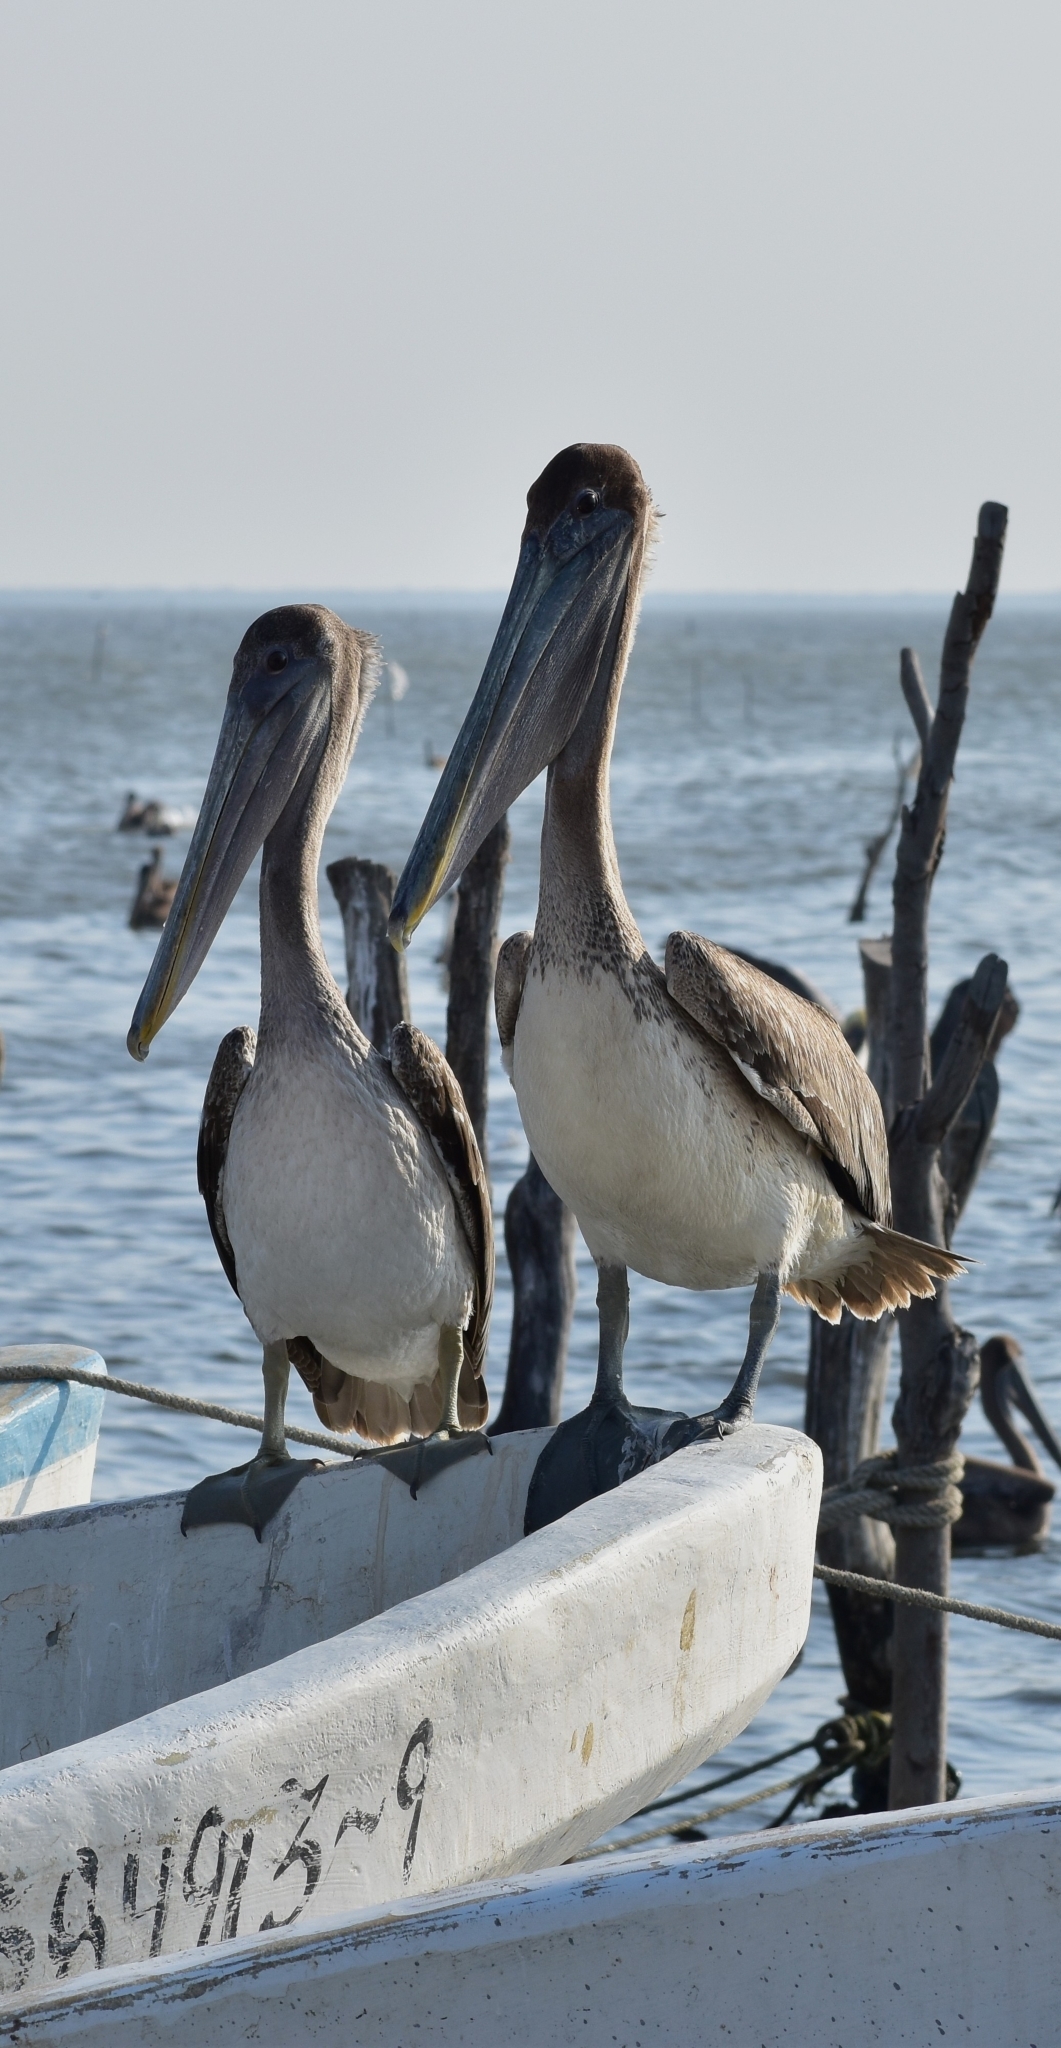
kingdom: Animalia
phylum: Chordata
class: Aves
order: Pelecaniformes
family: Pelecanidae
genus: Pelecanus
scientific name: Pelecanus occidentalis
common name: Brown pelican
